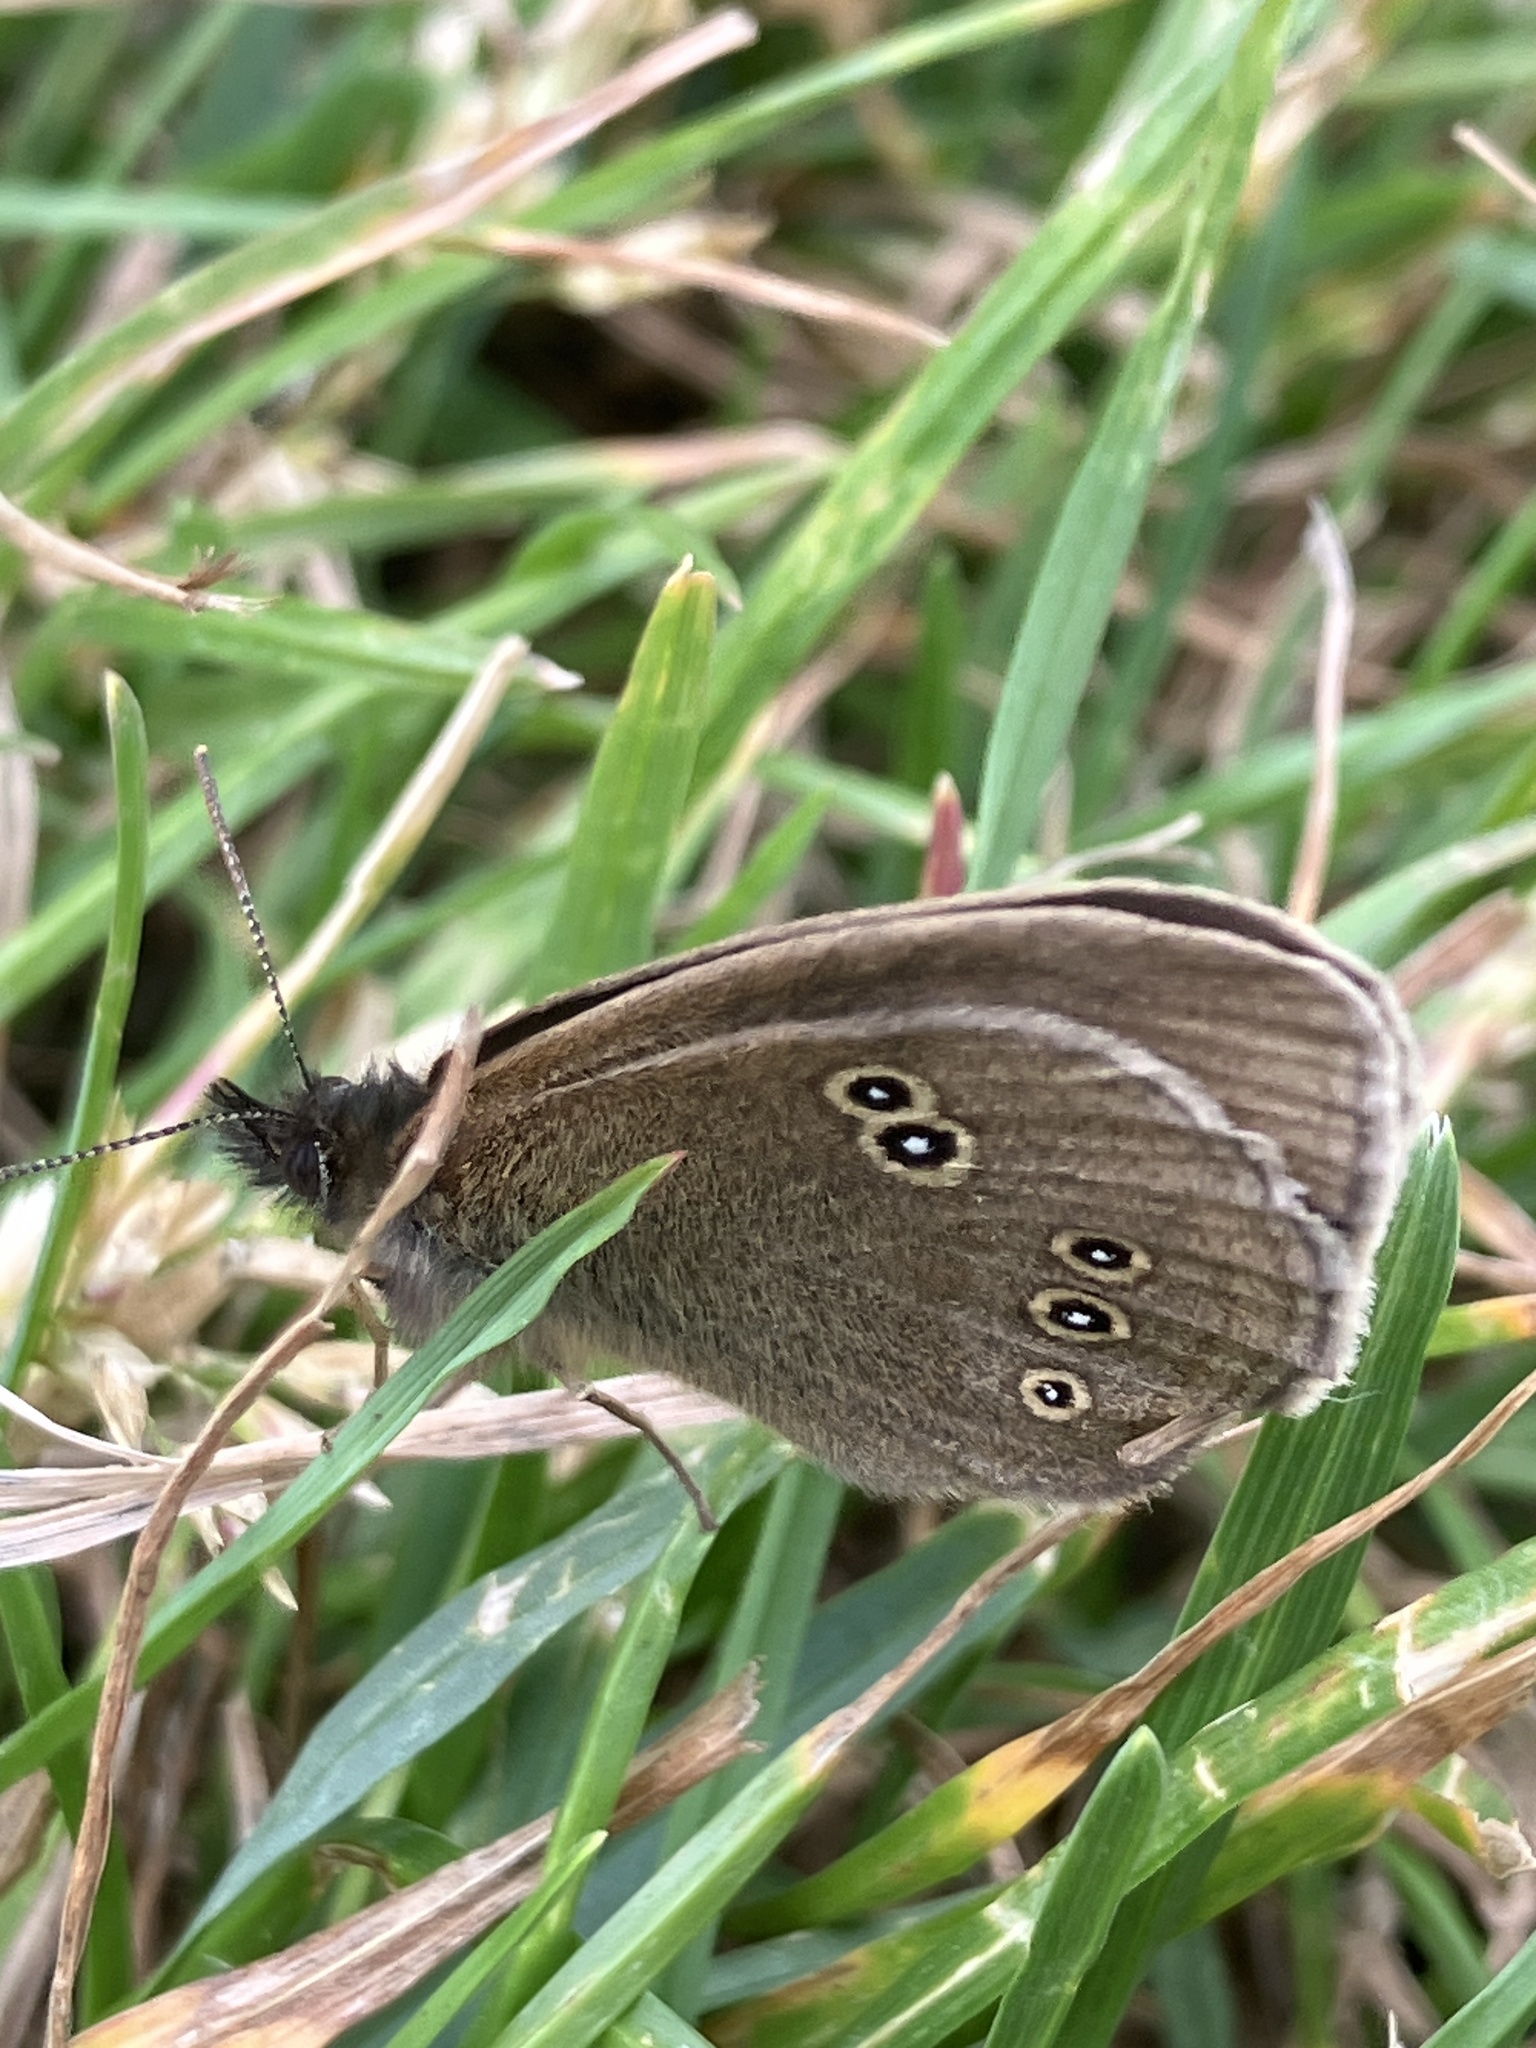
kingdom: Animalia
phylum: Arthropoda
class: Insecta
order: Lepidoptera
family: Nymphalidae
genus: Aphantopus
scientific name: Aphantopus hyperantus
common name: Ringlet
